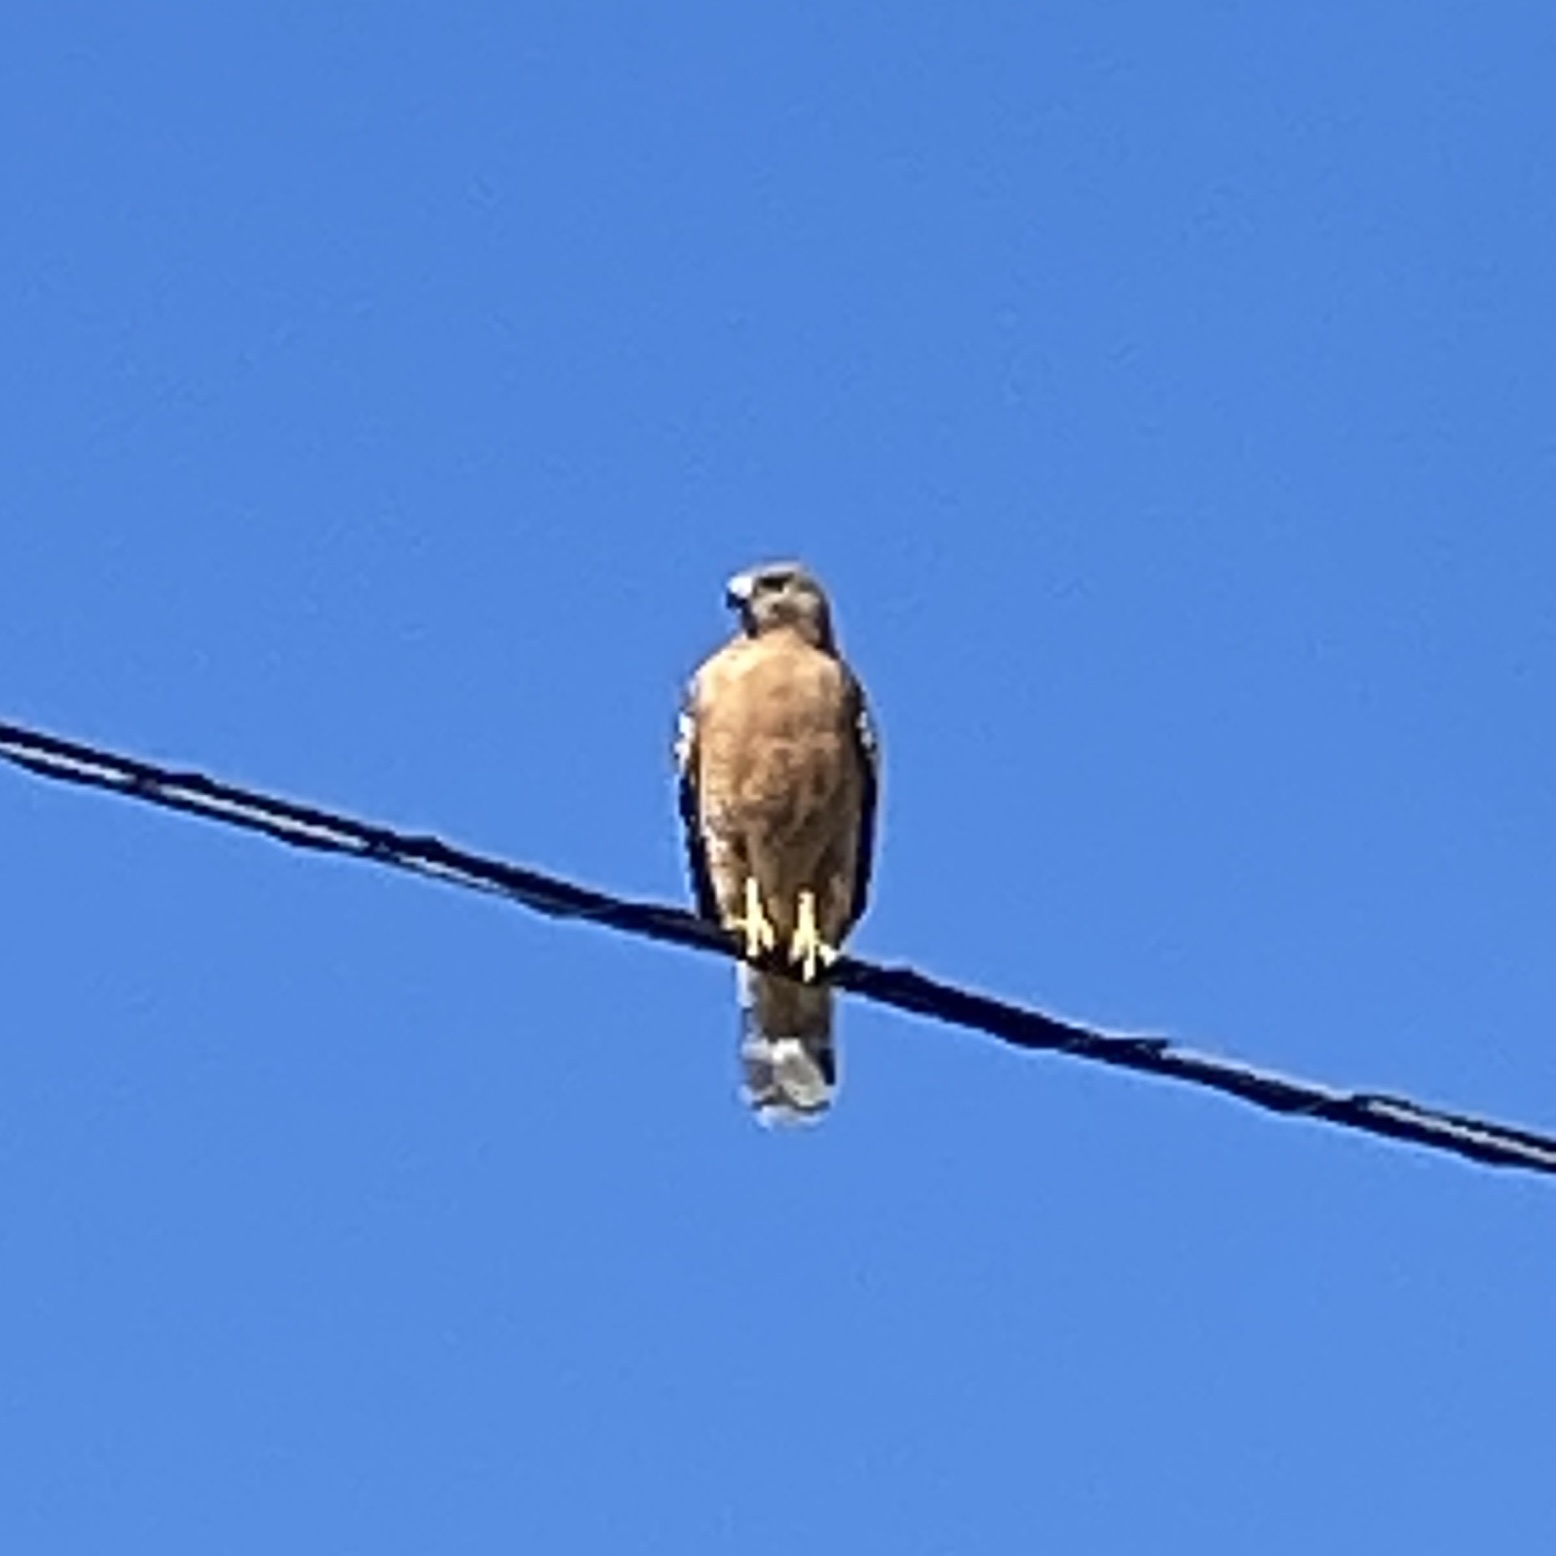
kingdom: Animalia
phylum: Chordata
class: Aves
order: Accipitriformes
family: Accipitridae
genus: Buteo
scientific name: Buteo lineatus
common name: Red-shouldered hawk
